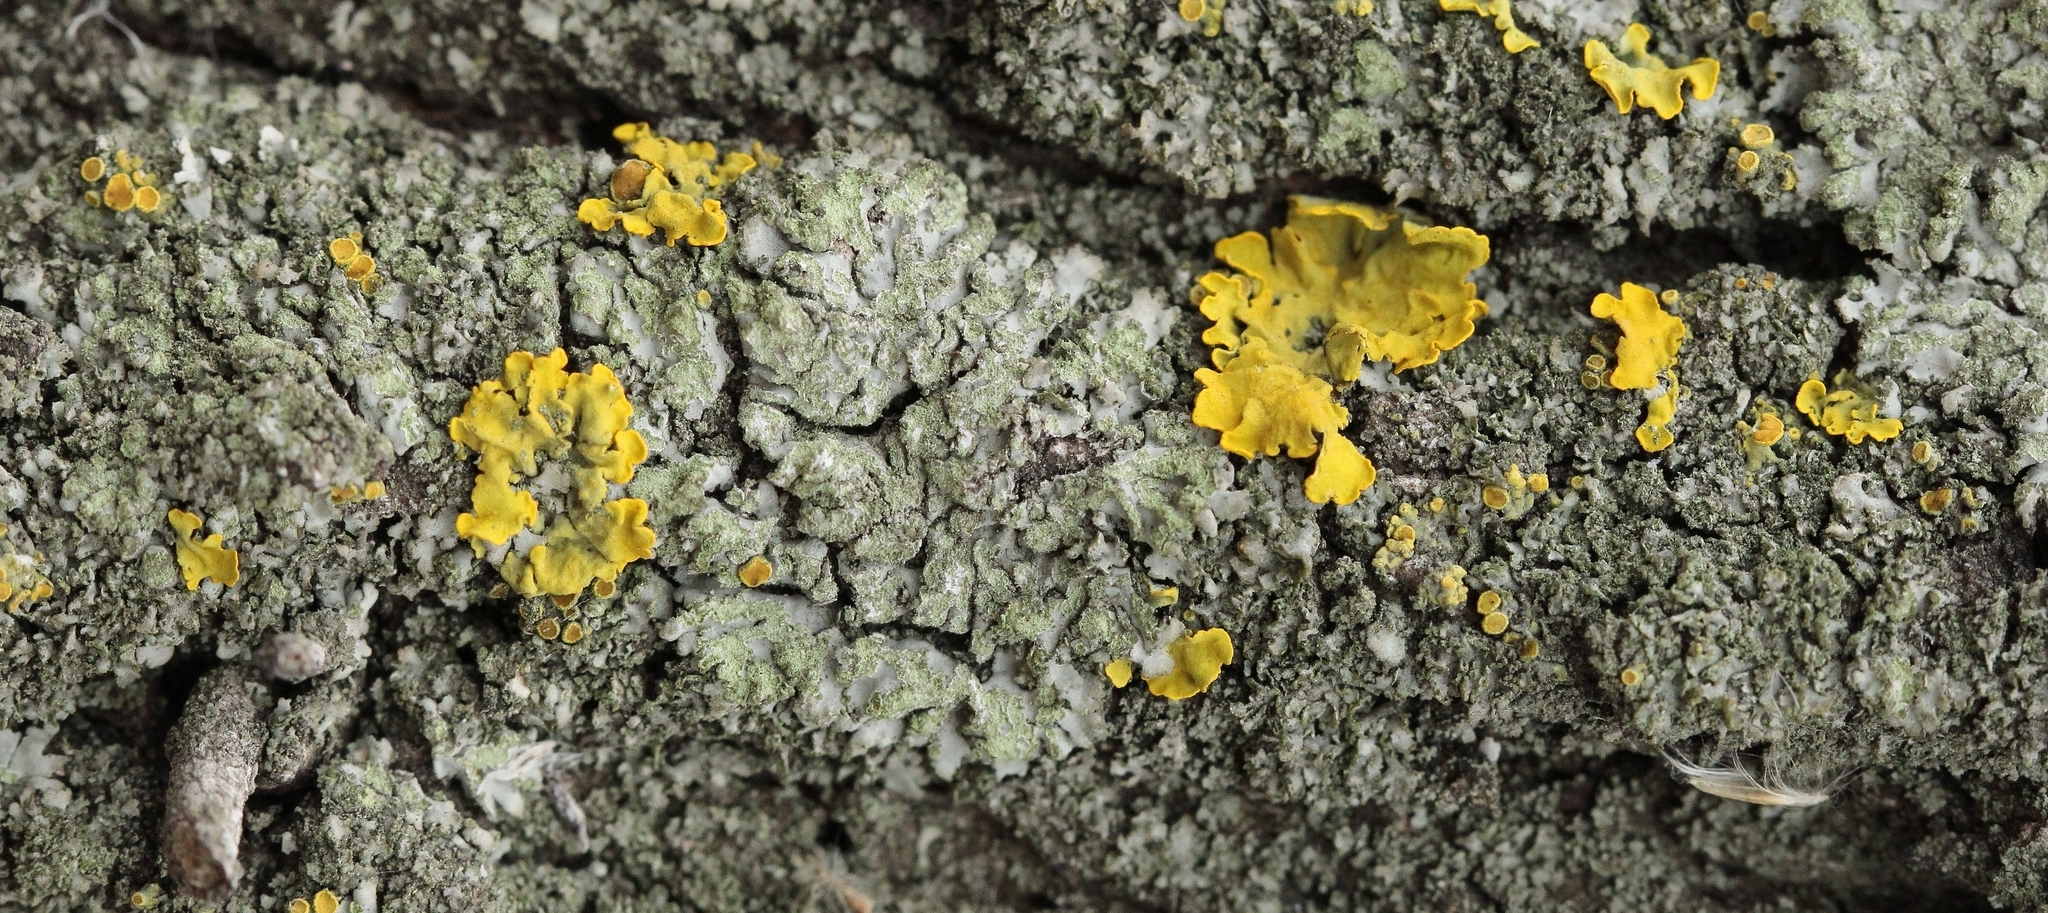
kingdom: Fungi
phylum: Ascomycota
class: Lecanoromycetes
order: Teloschistales
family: Teloschistaceae
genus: Xanthoria
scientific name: Xanthoria parietina
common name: Common orange lichen
